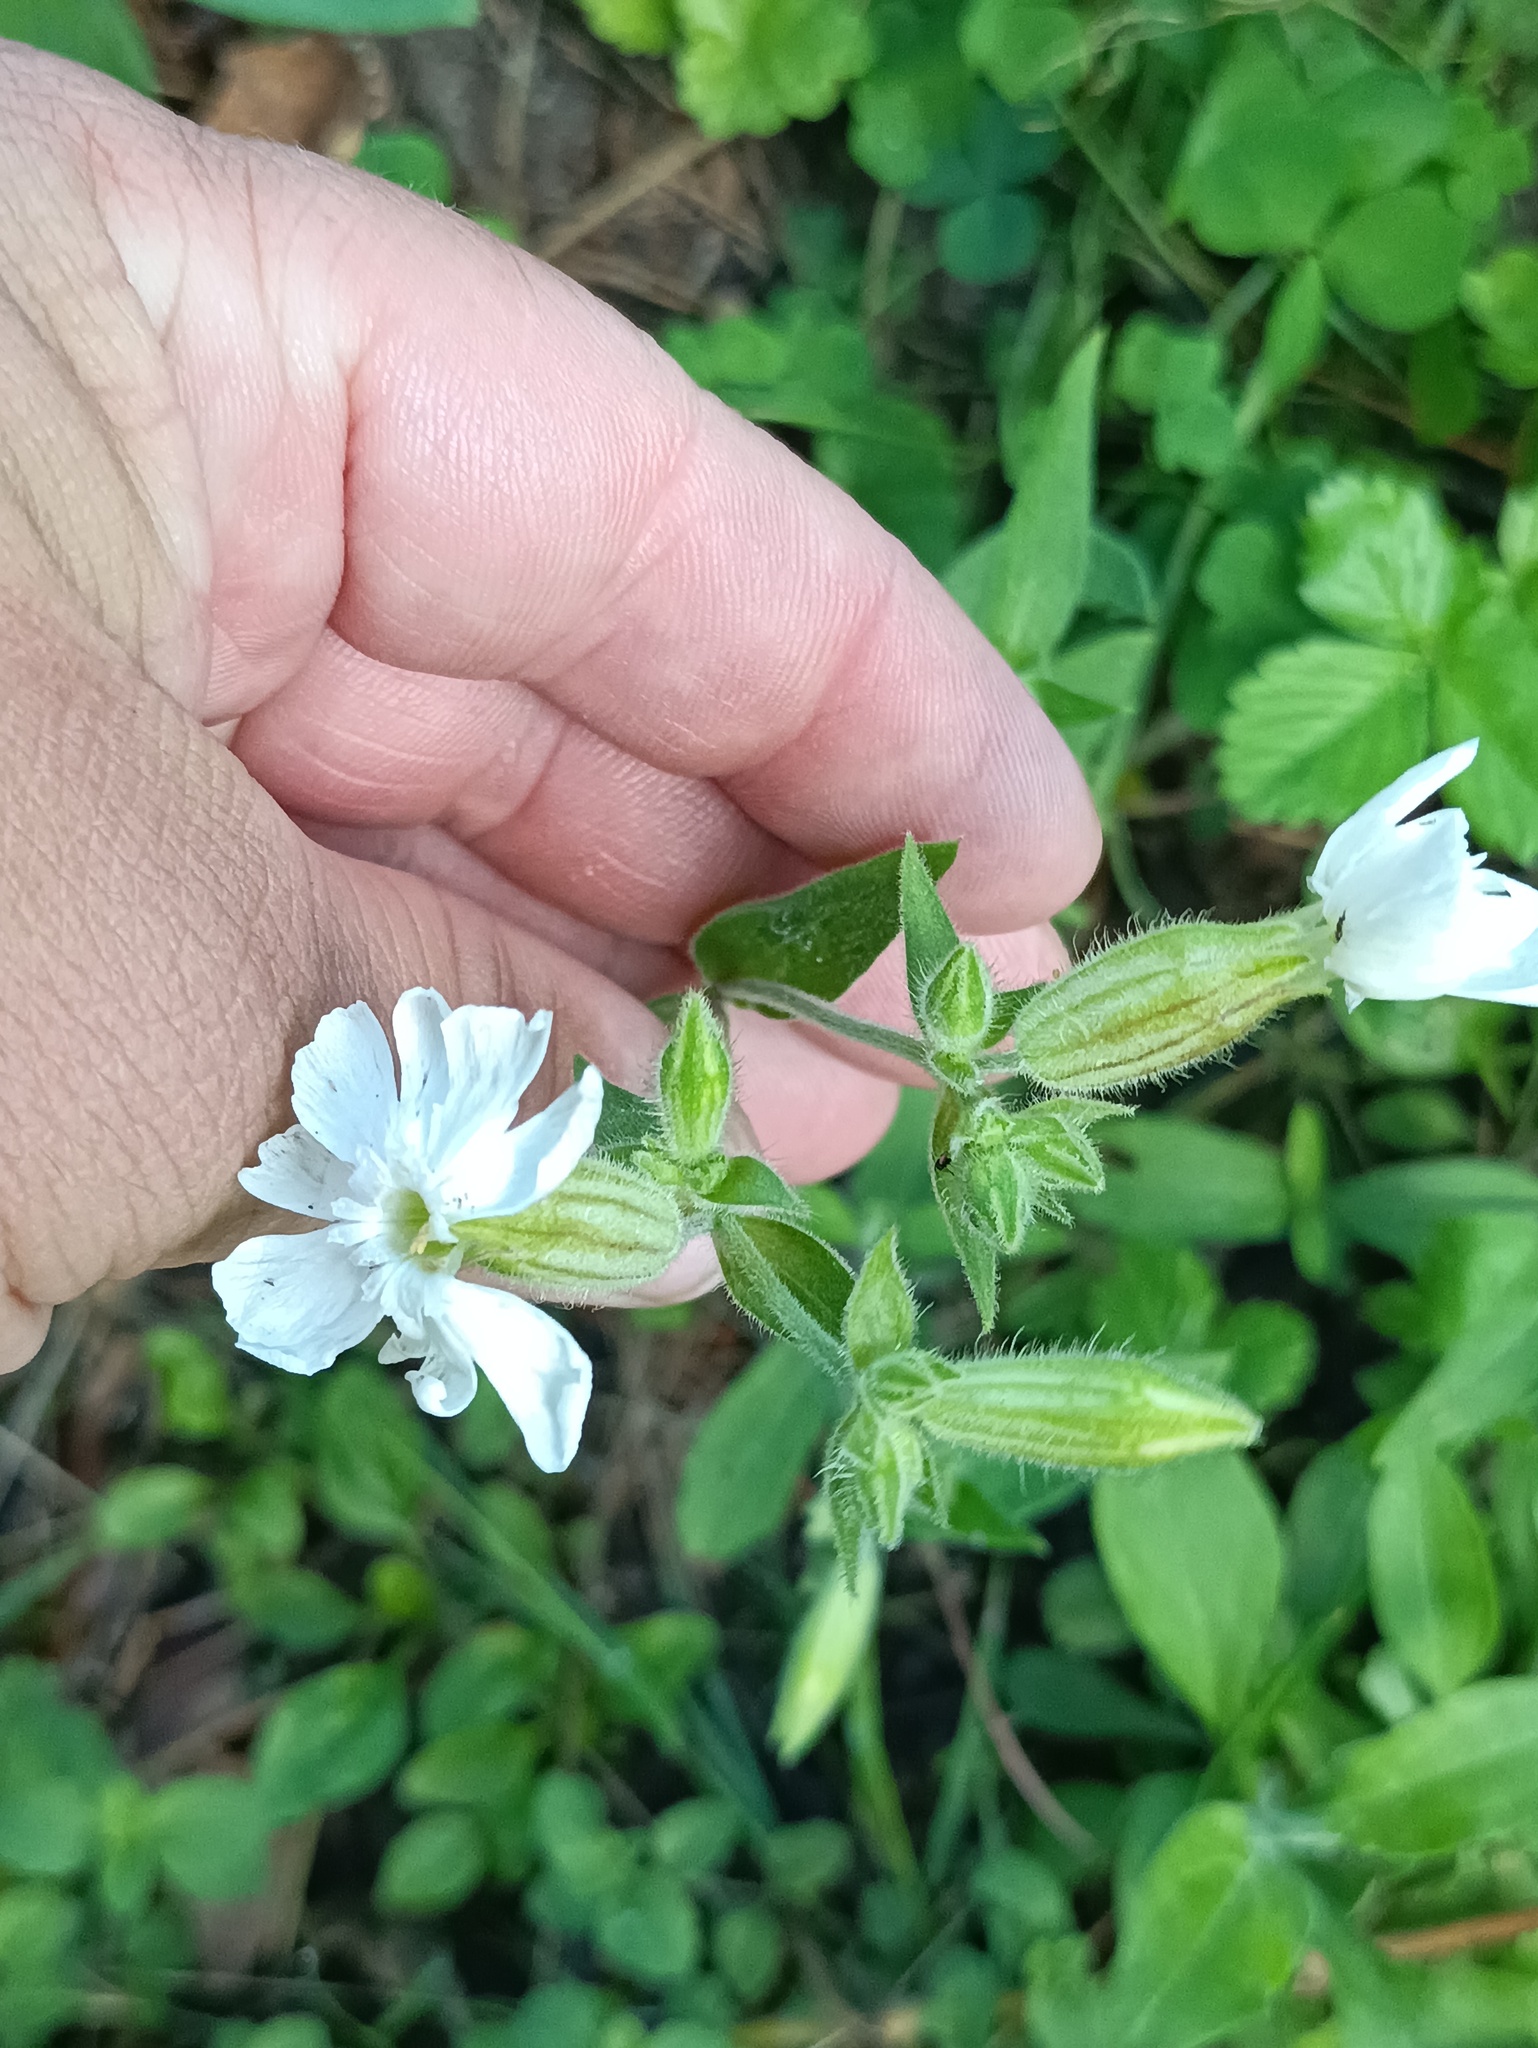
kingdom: Plantae
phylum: Tracheophyta
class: Magnoliopsida
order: Caryophyllales
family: Caryophyllaceae
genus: Silene
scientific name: Silene latifolia
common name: White campion
